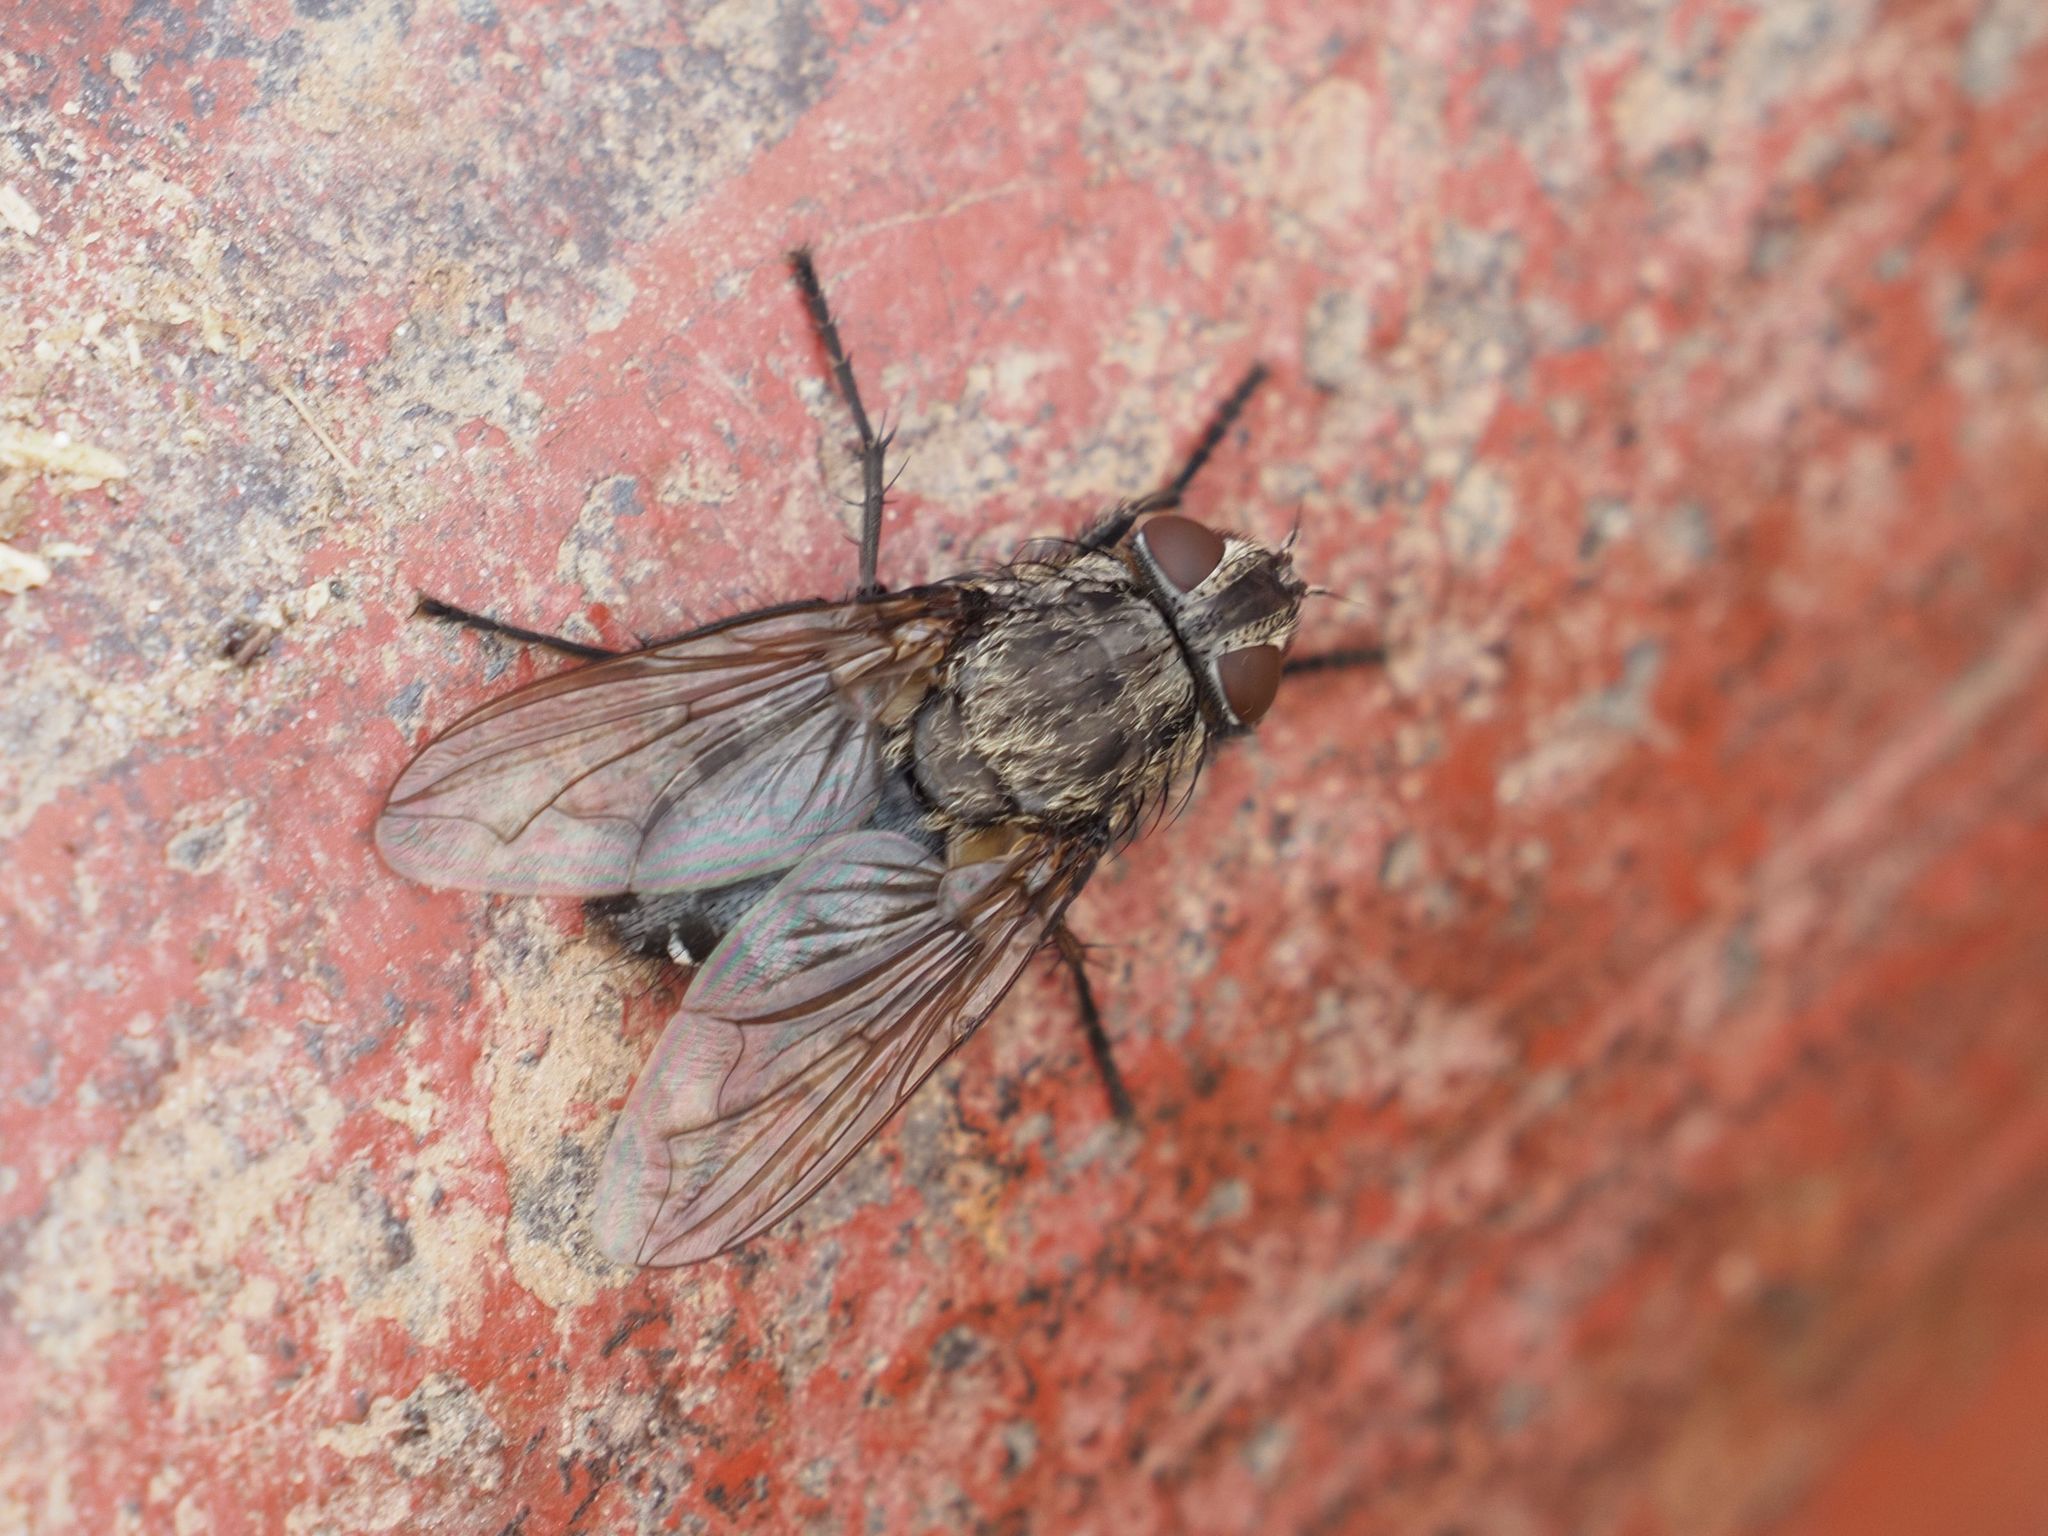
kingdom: Animalia
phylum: Arthropoda
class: Insecta
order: Diptera
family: Polleniidae
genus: Pollenia
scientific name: Pollenia vagabunda
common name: Vagabund cluster fly
